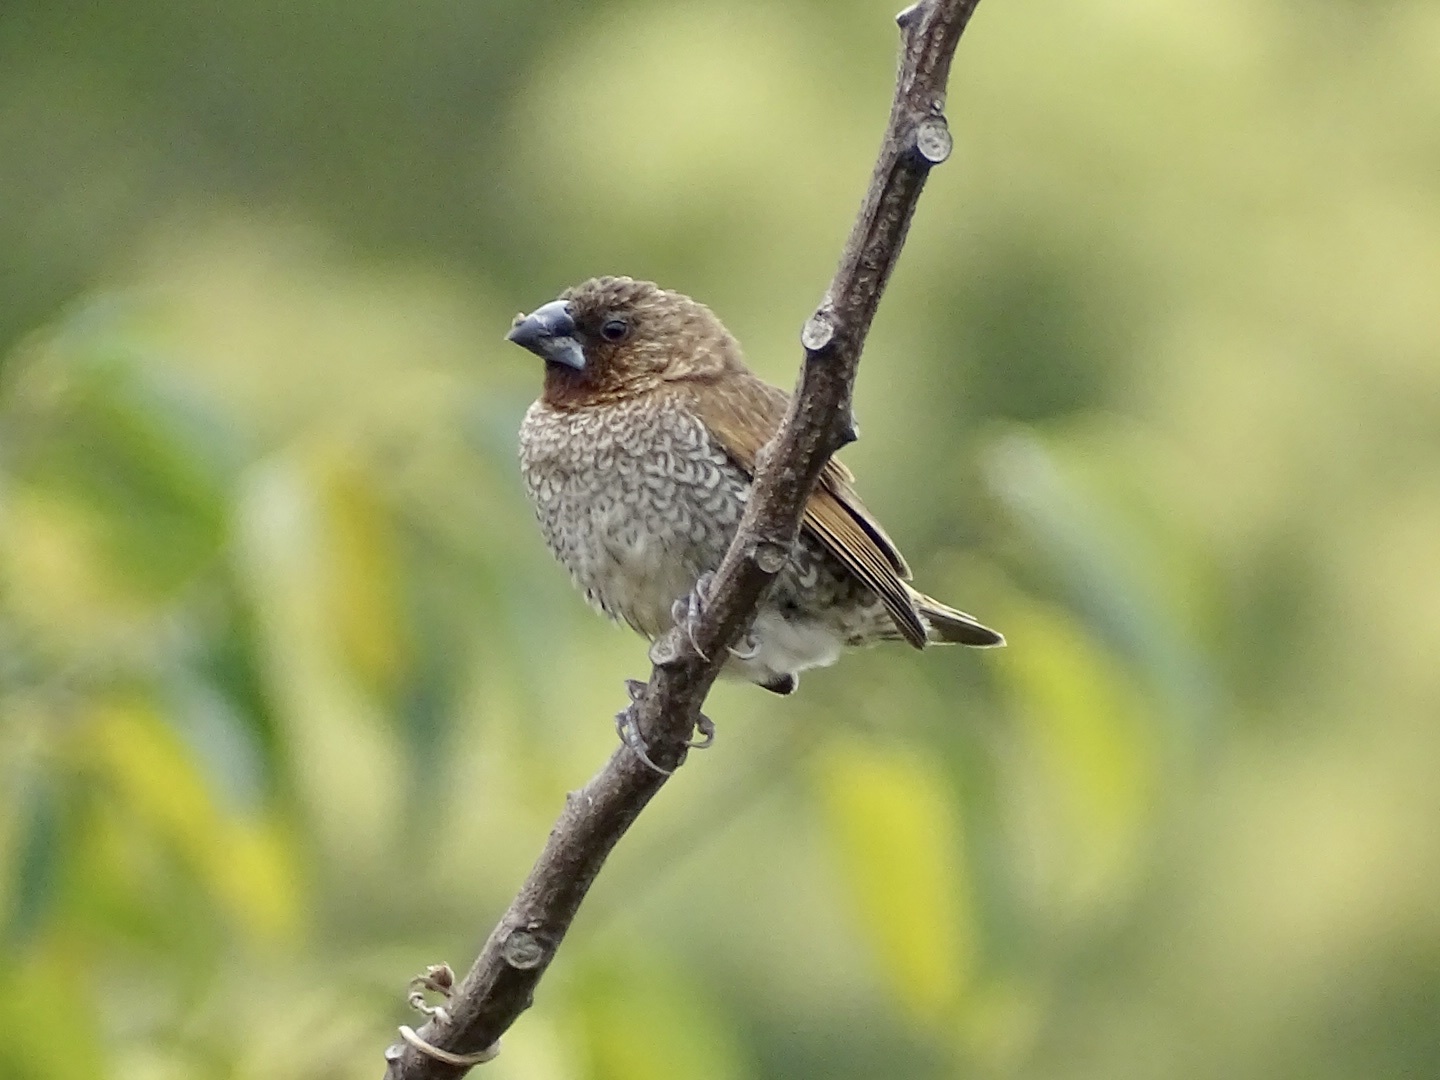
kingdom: Animalia
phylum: Chordata
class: Aves
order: Passeriformes
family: Estrildidae
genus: Lonchura
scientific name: Lonchura punctulata
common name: Scaly-breasted munia
